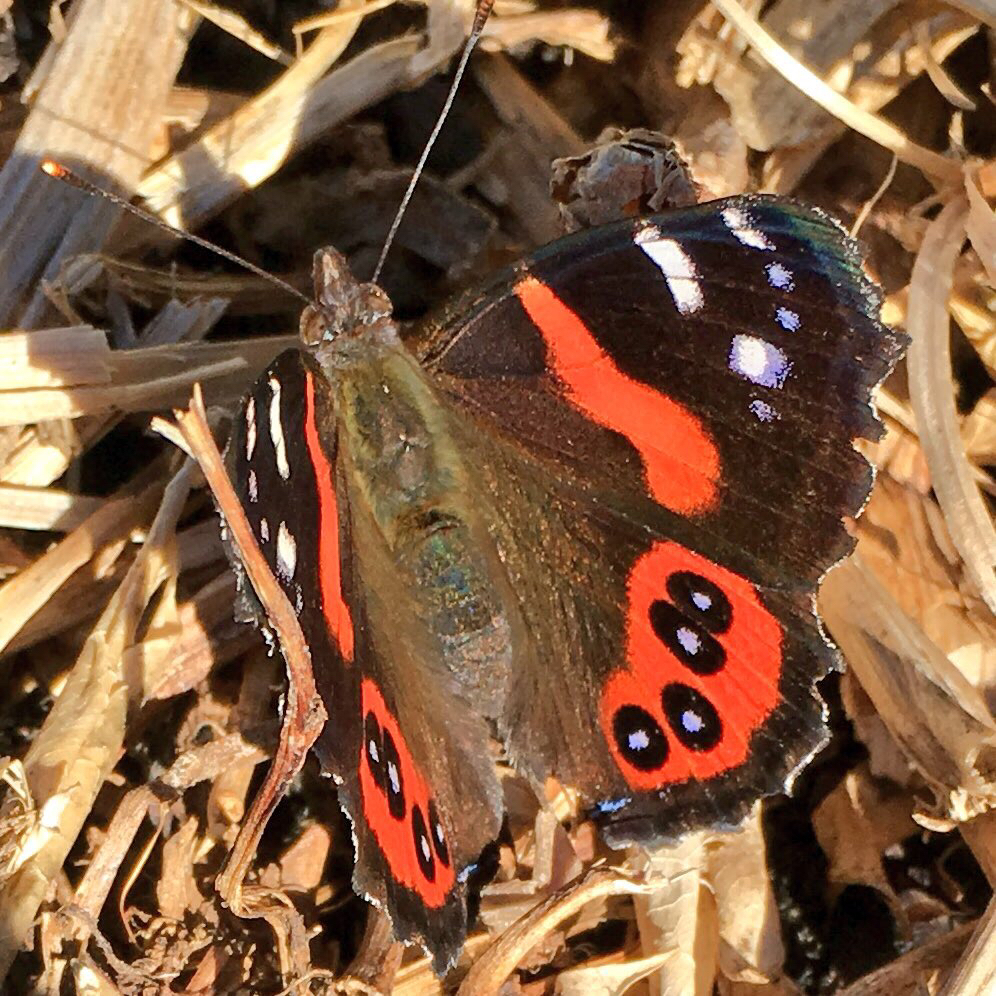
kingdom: Animalia
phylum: Arthropoda
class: Insecta
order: Lepidoptera
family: Nymphalidae
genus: Vanessa
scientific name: Vanessa gonerilla
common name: New zealand red admiral
